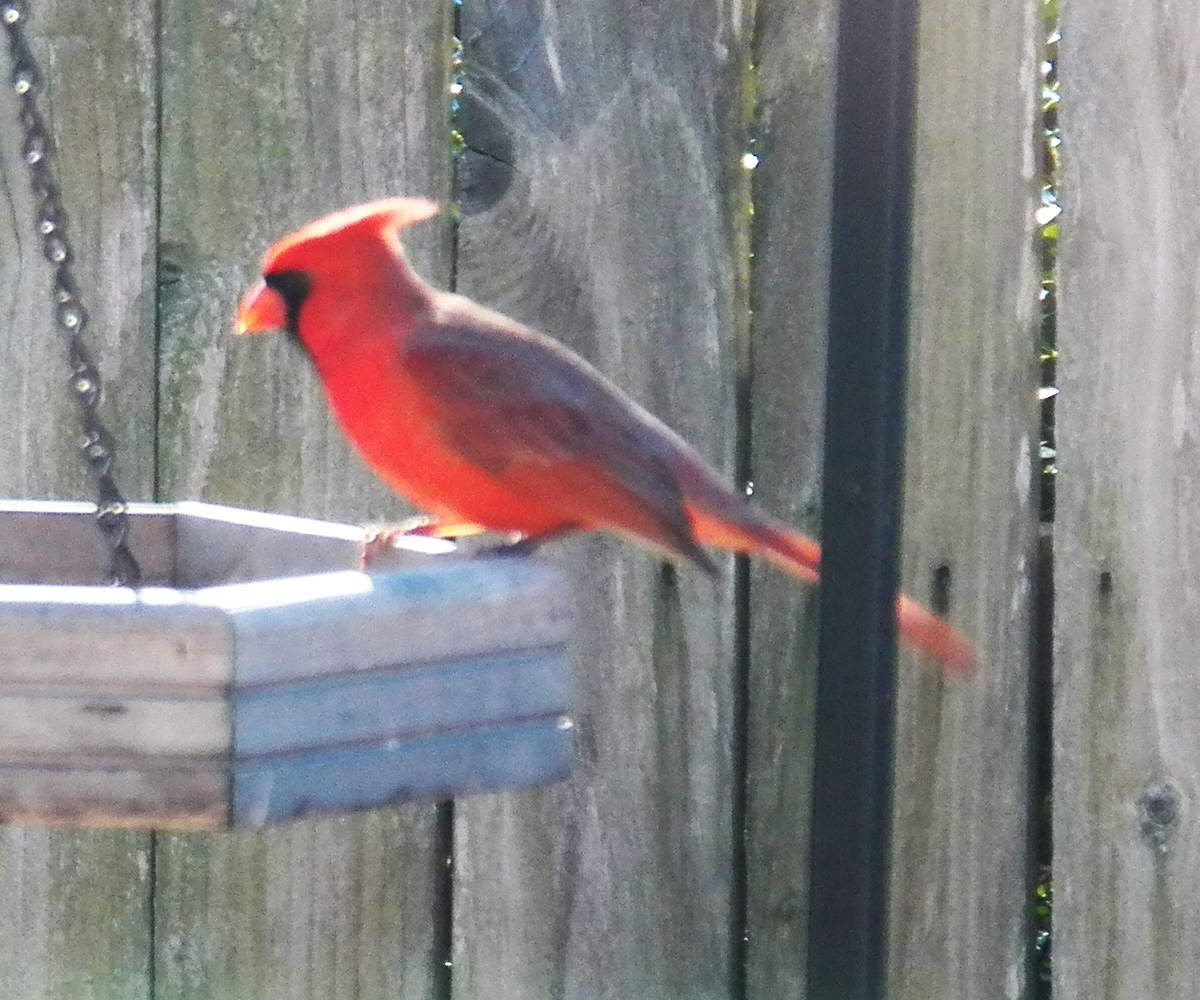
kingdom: Animalia
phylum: Chordata
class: Aves
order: Passeriformes
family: Cardinalidae
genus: Cardinalis
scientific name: Cardinalis cardinalis
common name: Northern cardinal
